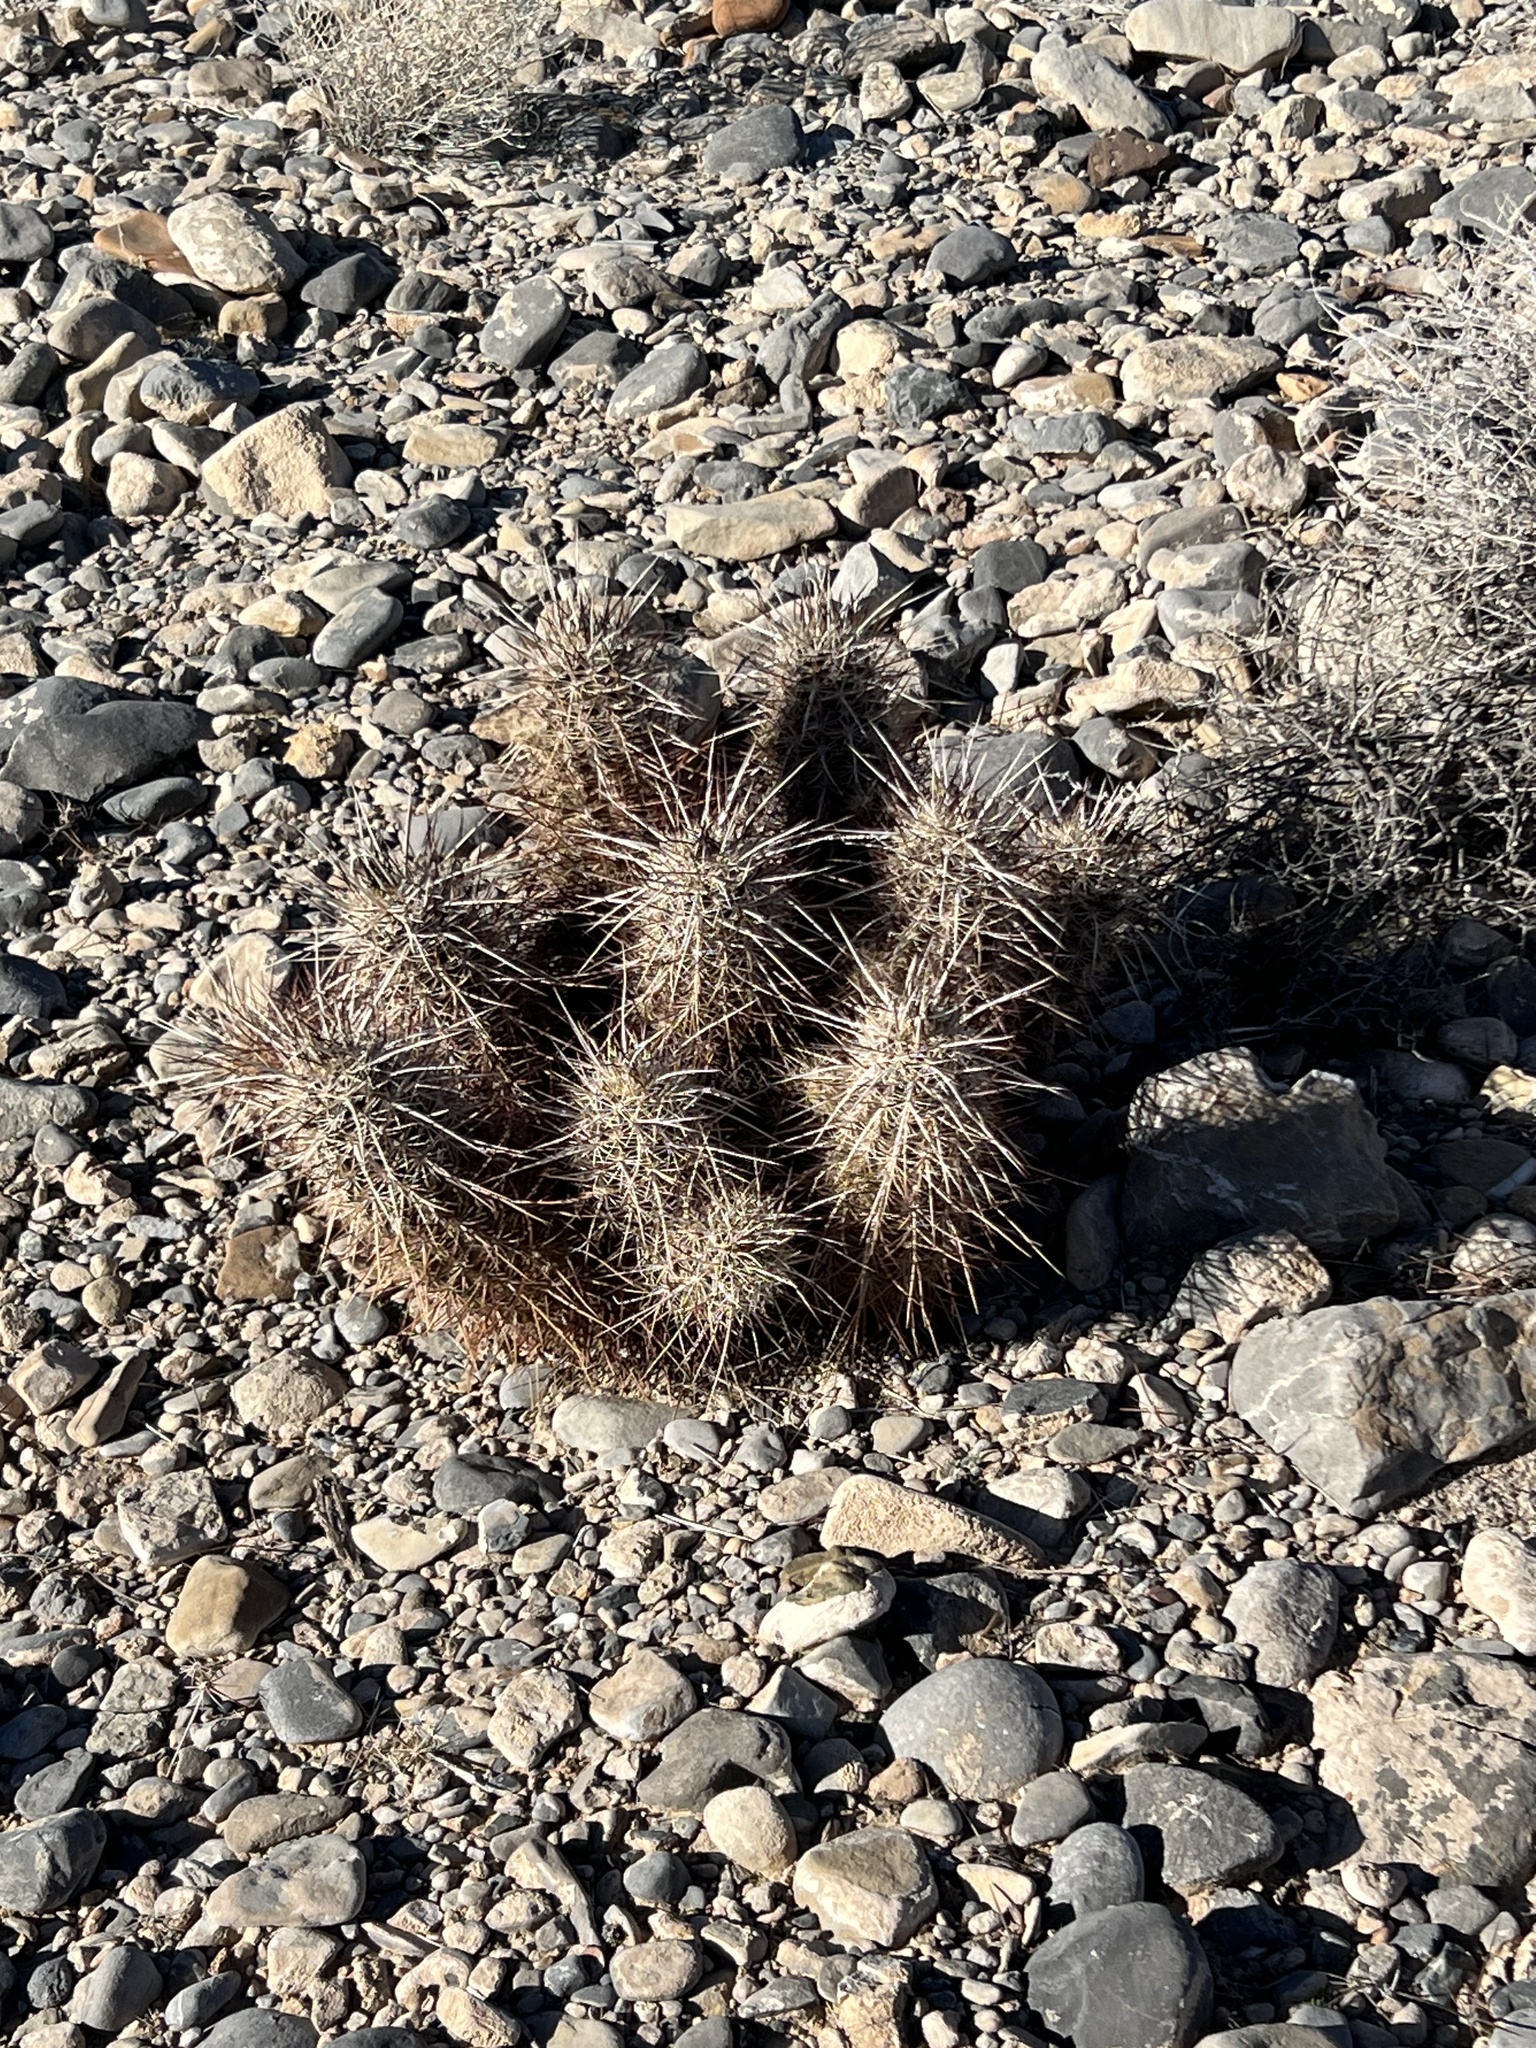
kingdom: Plantae
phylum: Tracheophyta
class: Magnoliopsida
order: Caryophyllales
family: Cactaceae
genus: Echinocereus
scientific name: Echinocereus engelmannii
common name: Engelmann's hedgehog cactus
